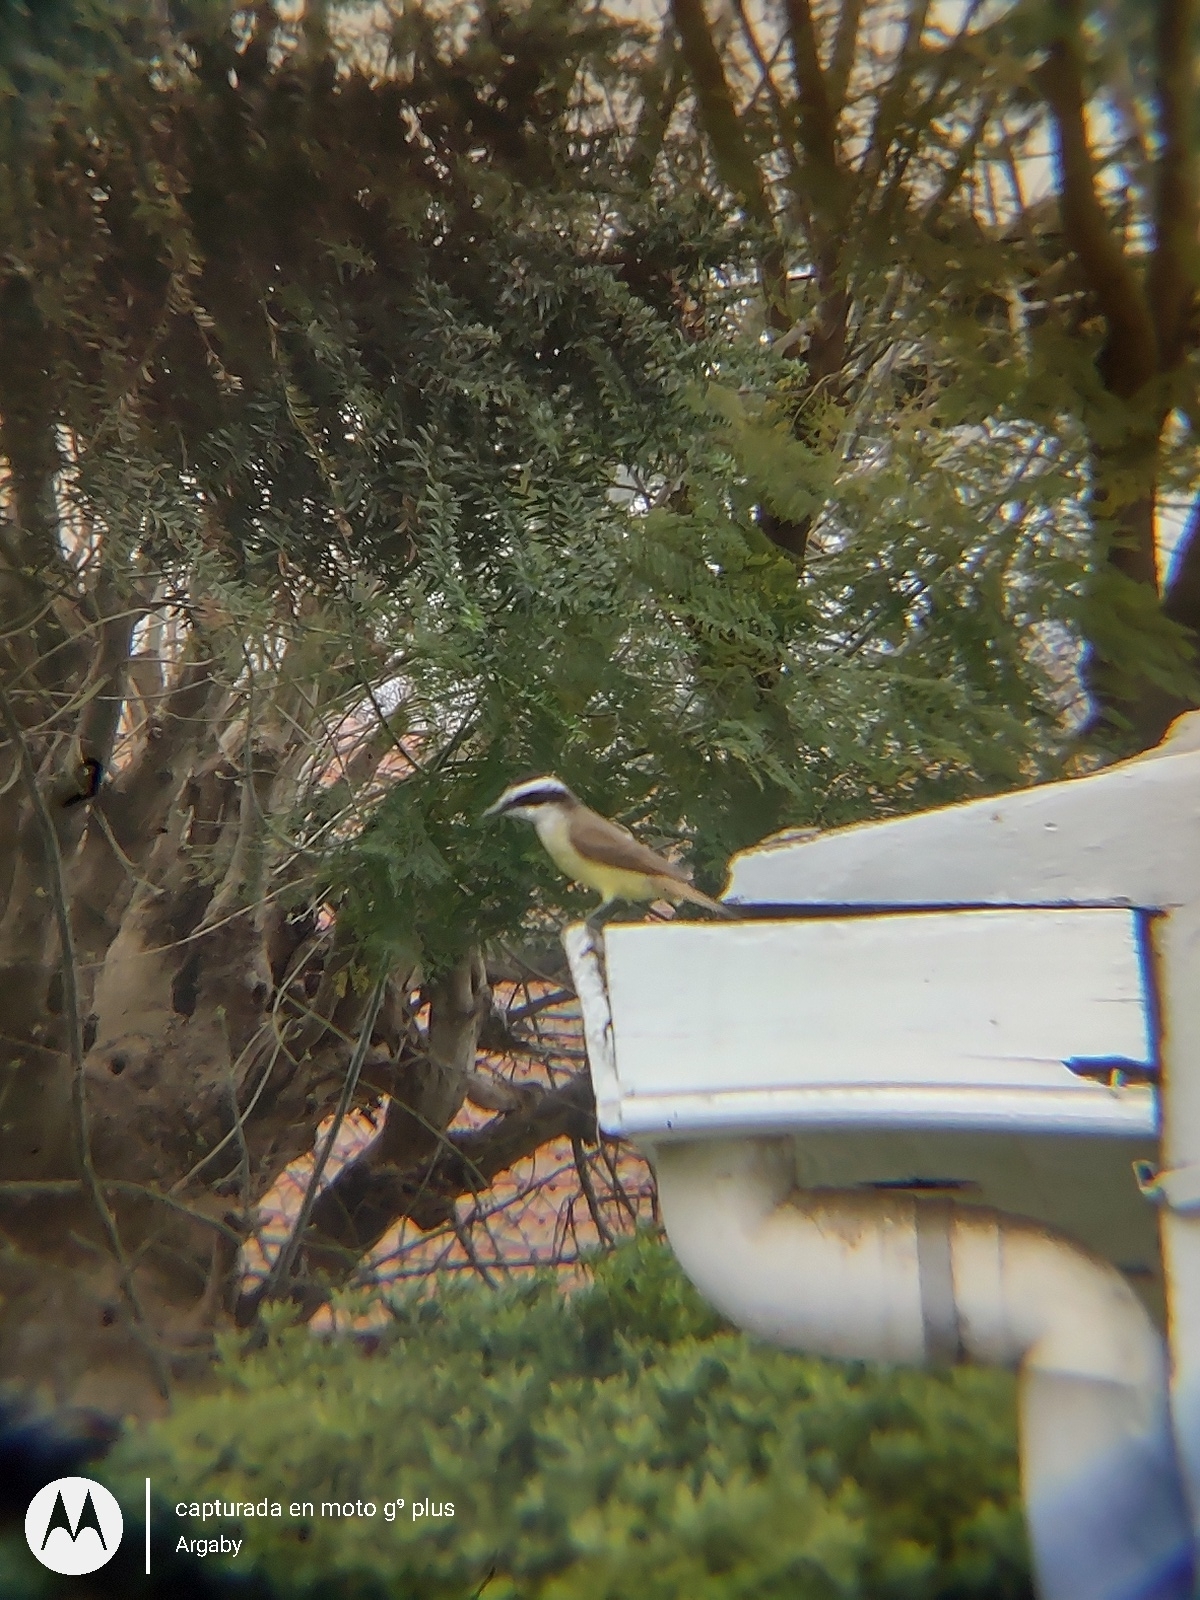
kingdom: Animalia
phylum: Chordata
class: Aves
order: Passeriformes
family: Tyrannidae
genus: Pitangus
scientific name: Pitangus sulphuratus
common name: Great kiskadee
